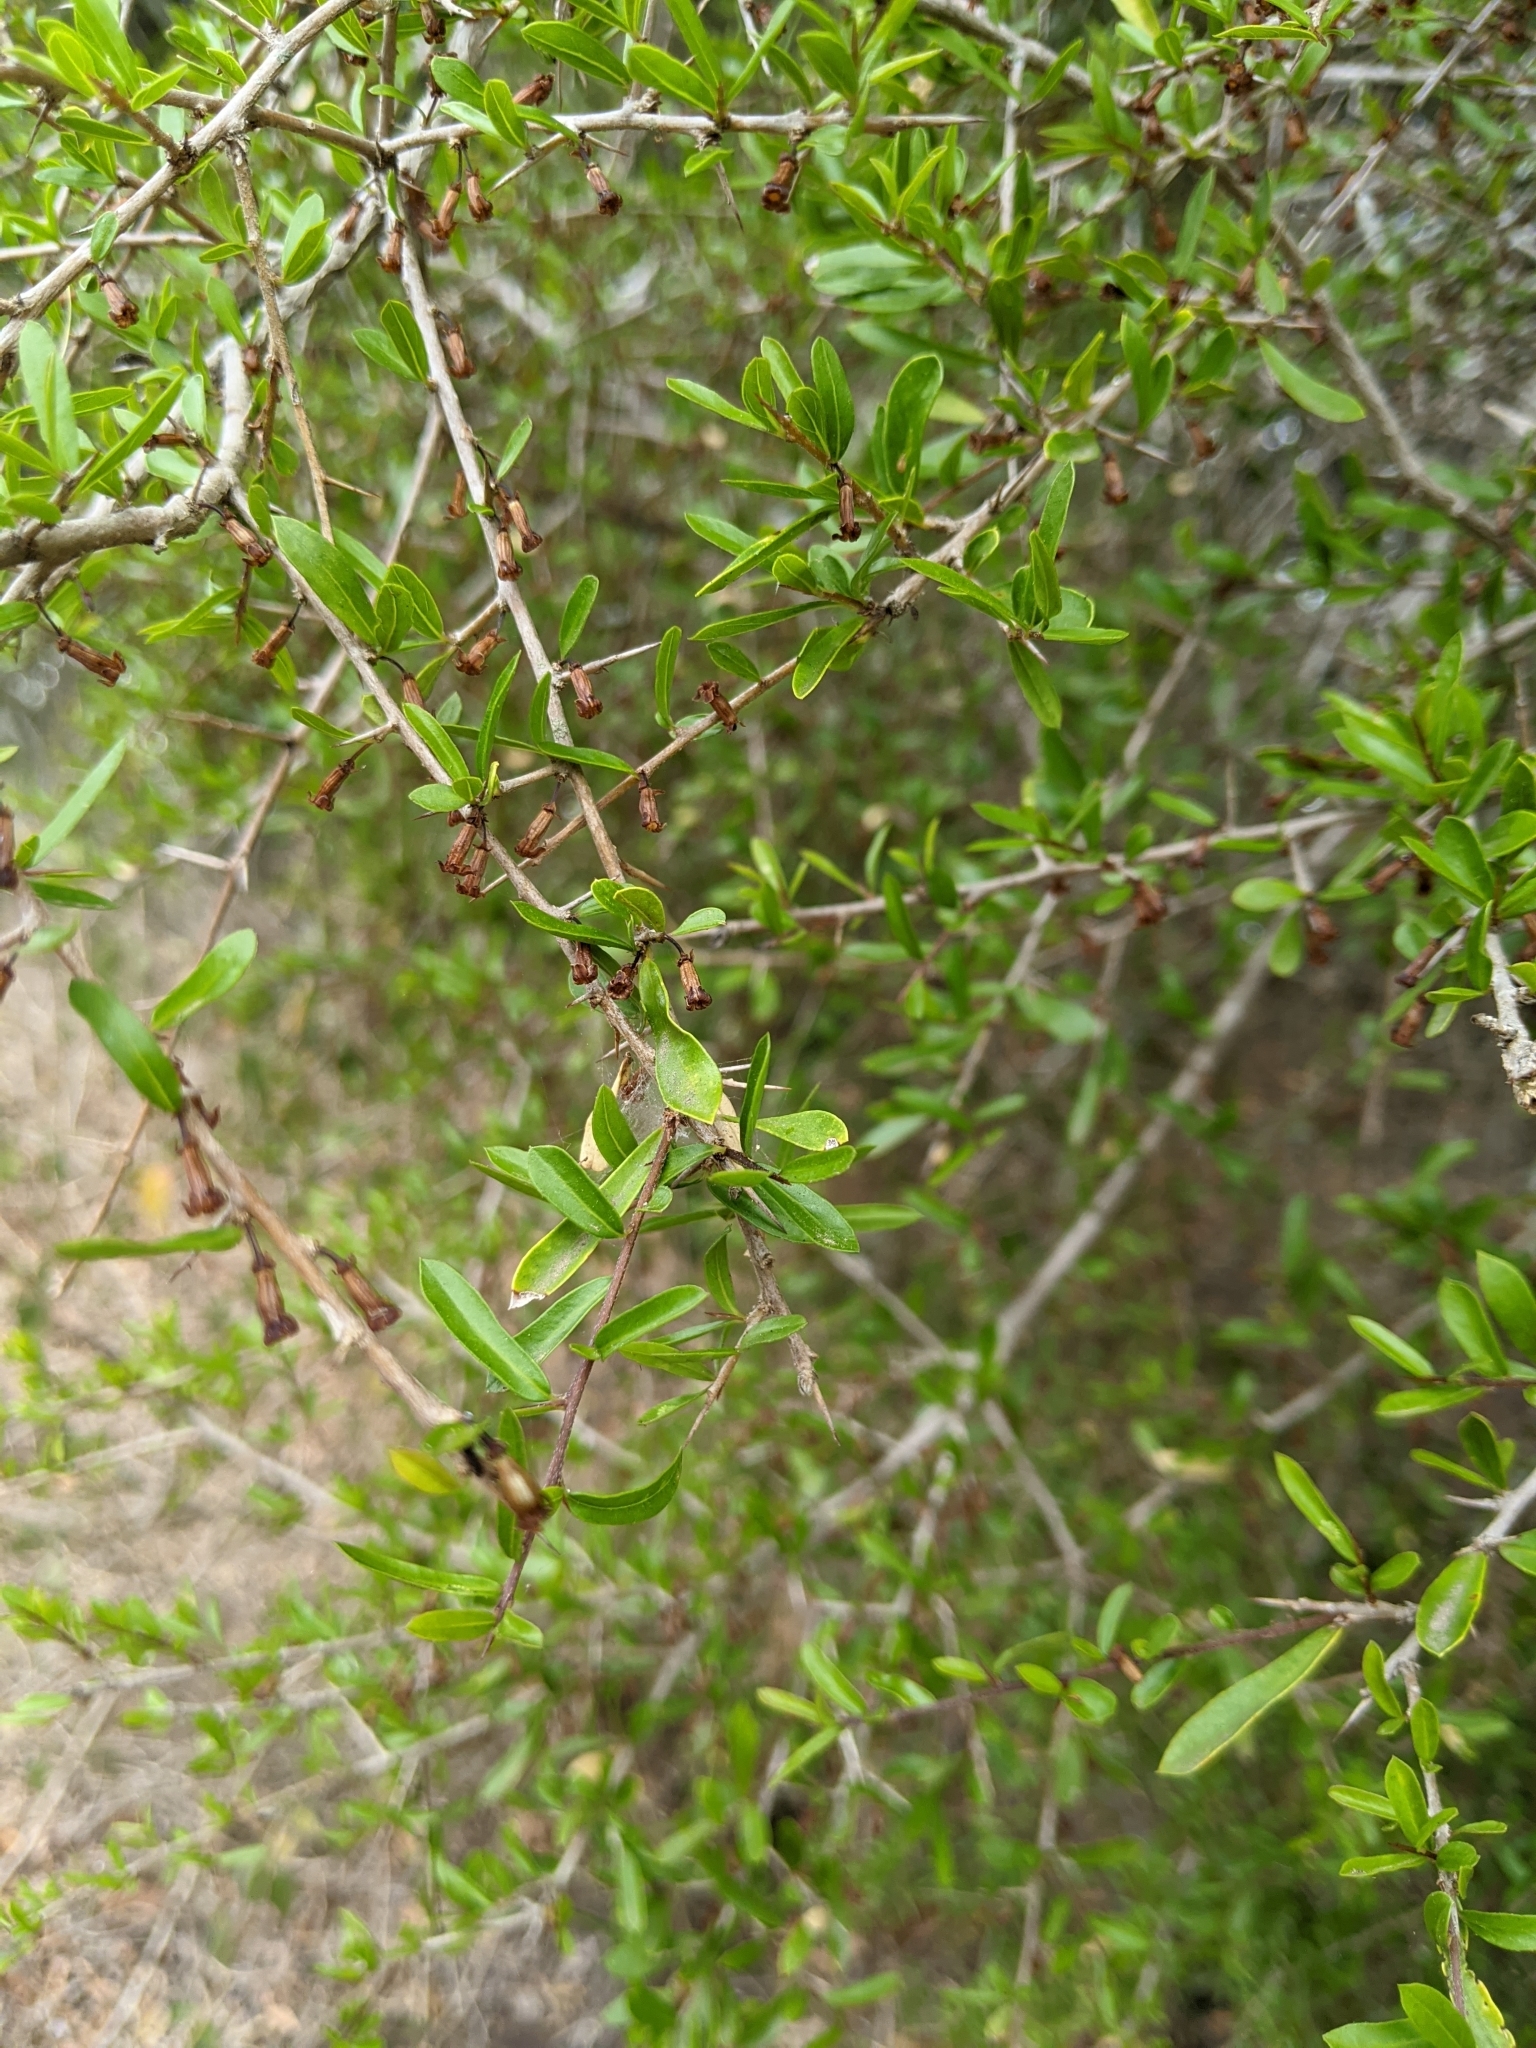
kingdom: Plantae
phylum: Tracheophyta
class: Magnoliopsida
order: Apiales
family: Pittosporaceae
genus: Pittosporum
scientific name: Pittosporum viscidum
